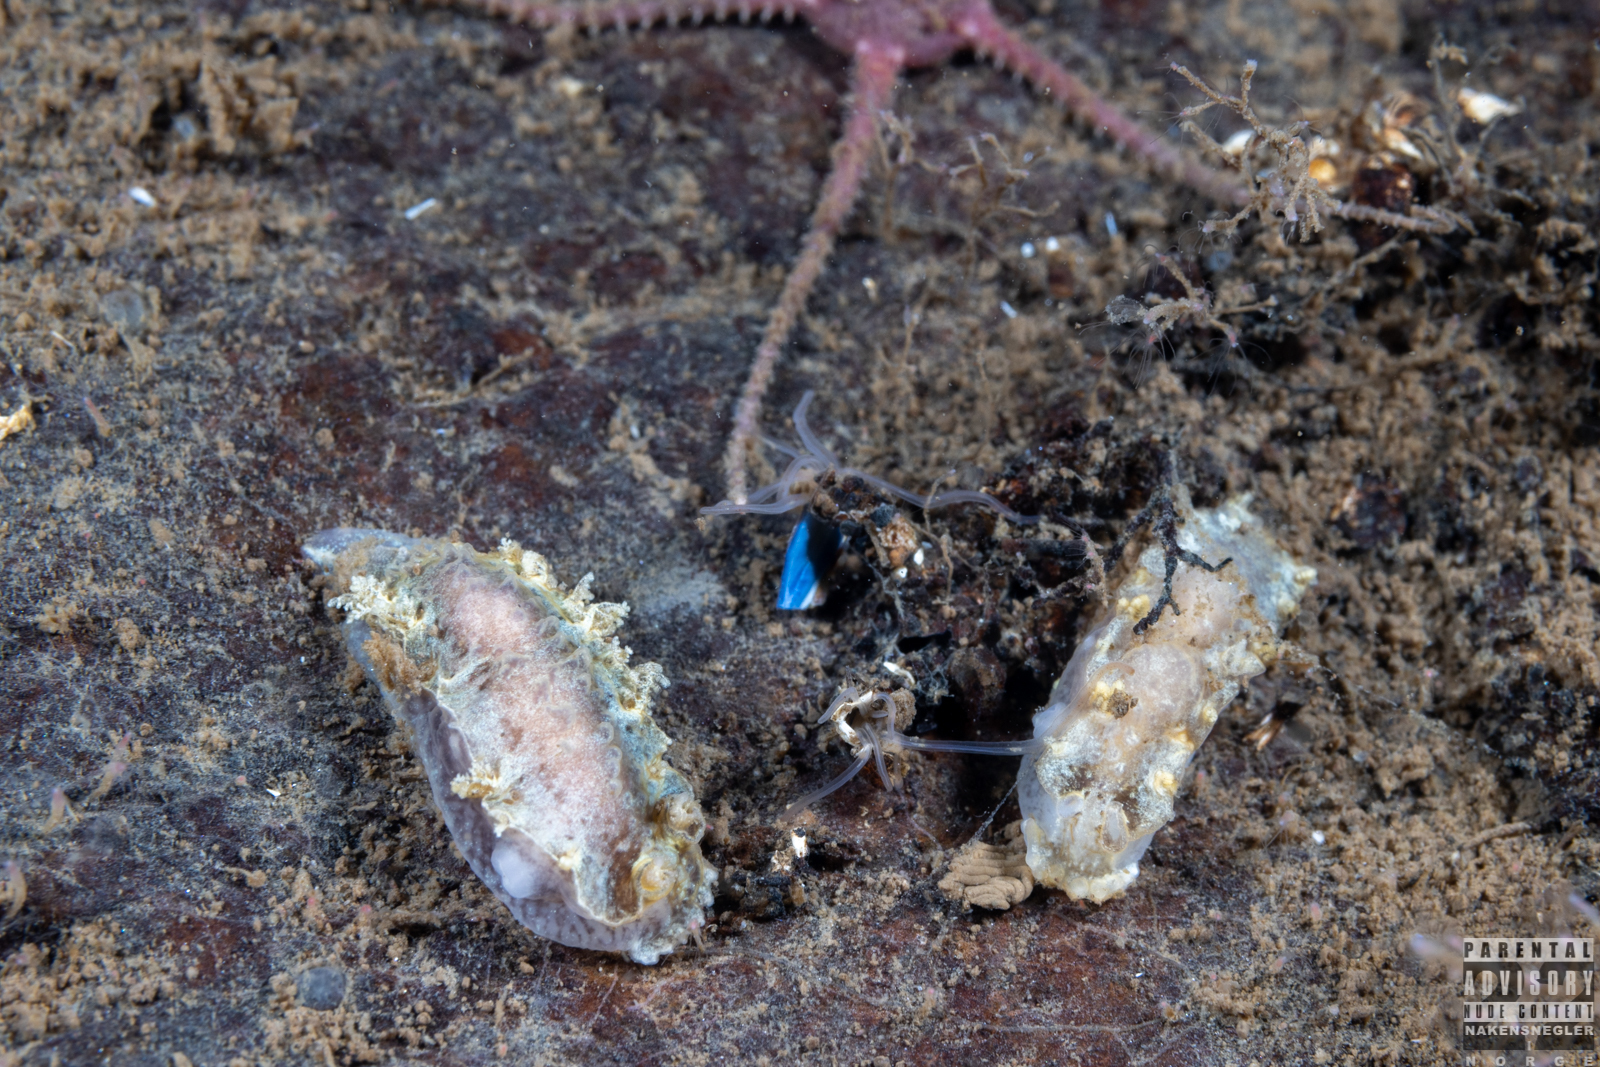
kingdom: Animalia
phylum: Mollusca
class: Gastropoda
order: Nudibranchia
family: Tritoniidae
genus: Duvaucelia
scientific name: Duvaucelia plebeia
